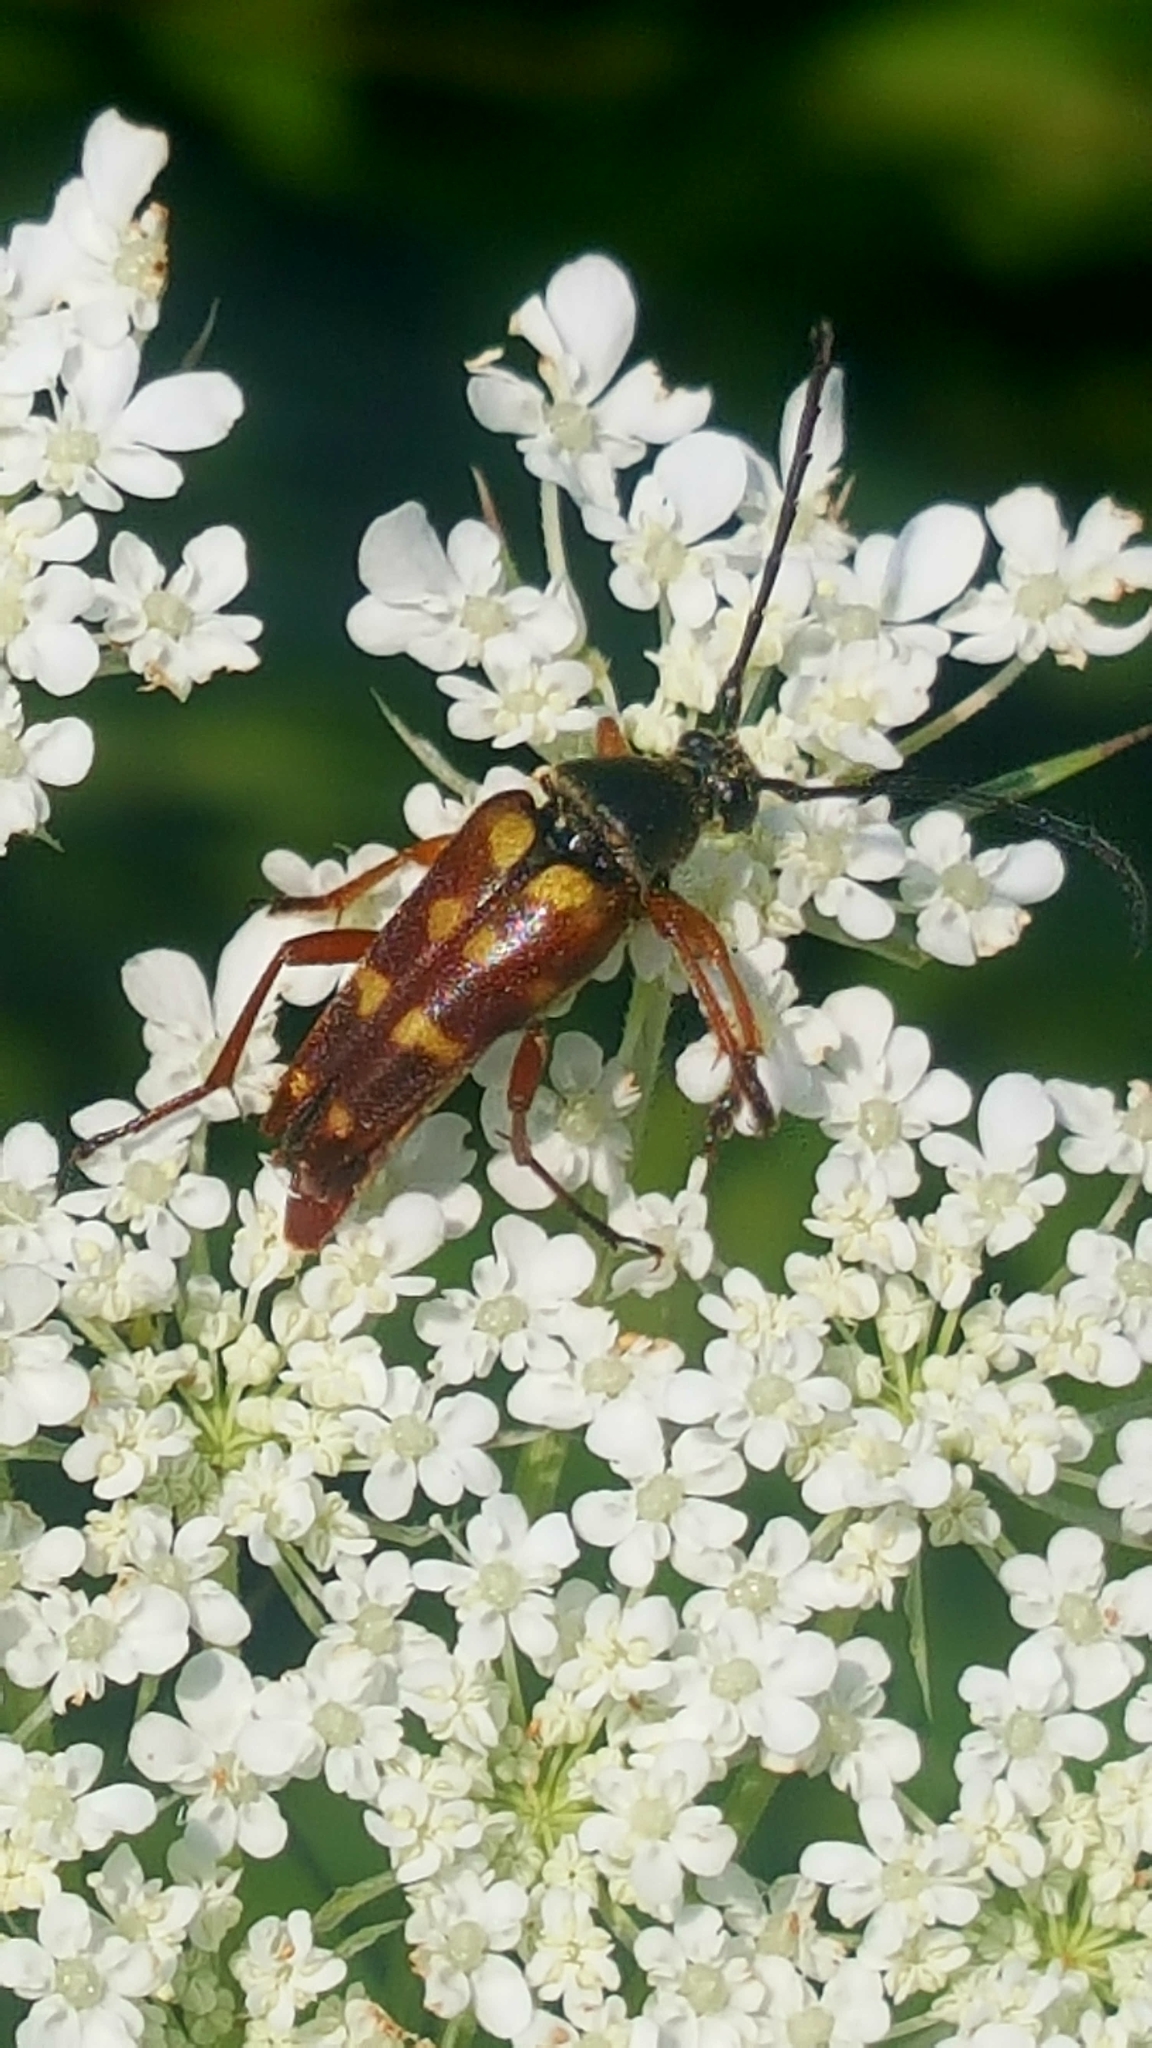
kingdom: Animalia
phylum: Arthropoda
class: Insecta
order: Coleoptera
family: Cerambycidae
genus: Typocerus
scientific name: Typocerus velutinus
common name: Banded longhorn beetle
